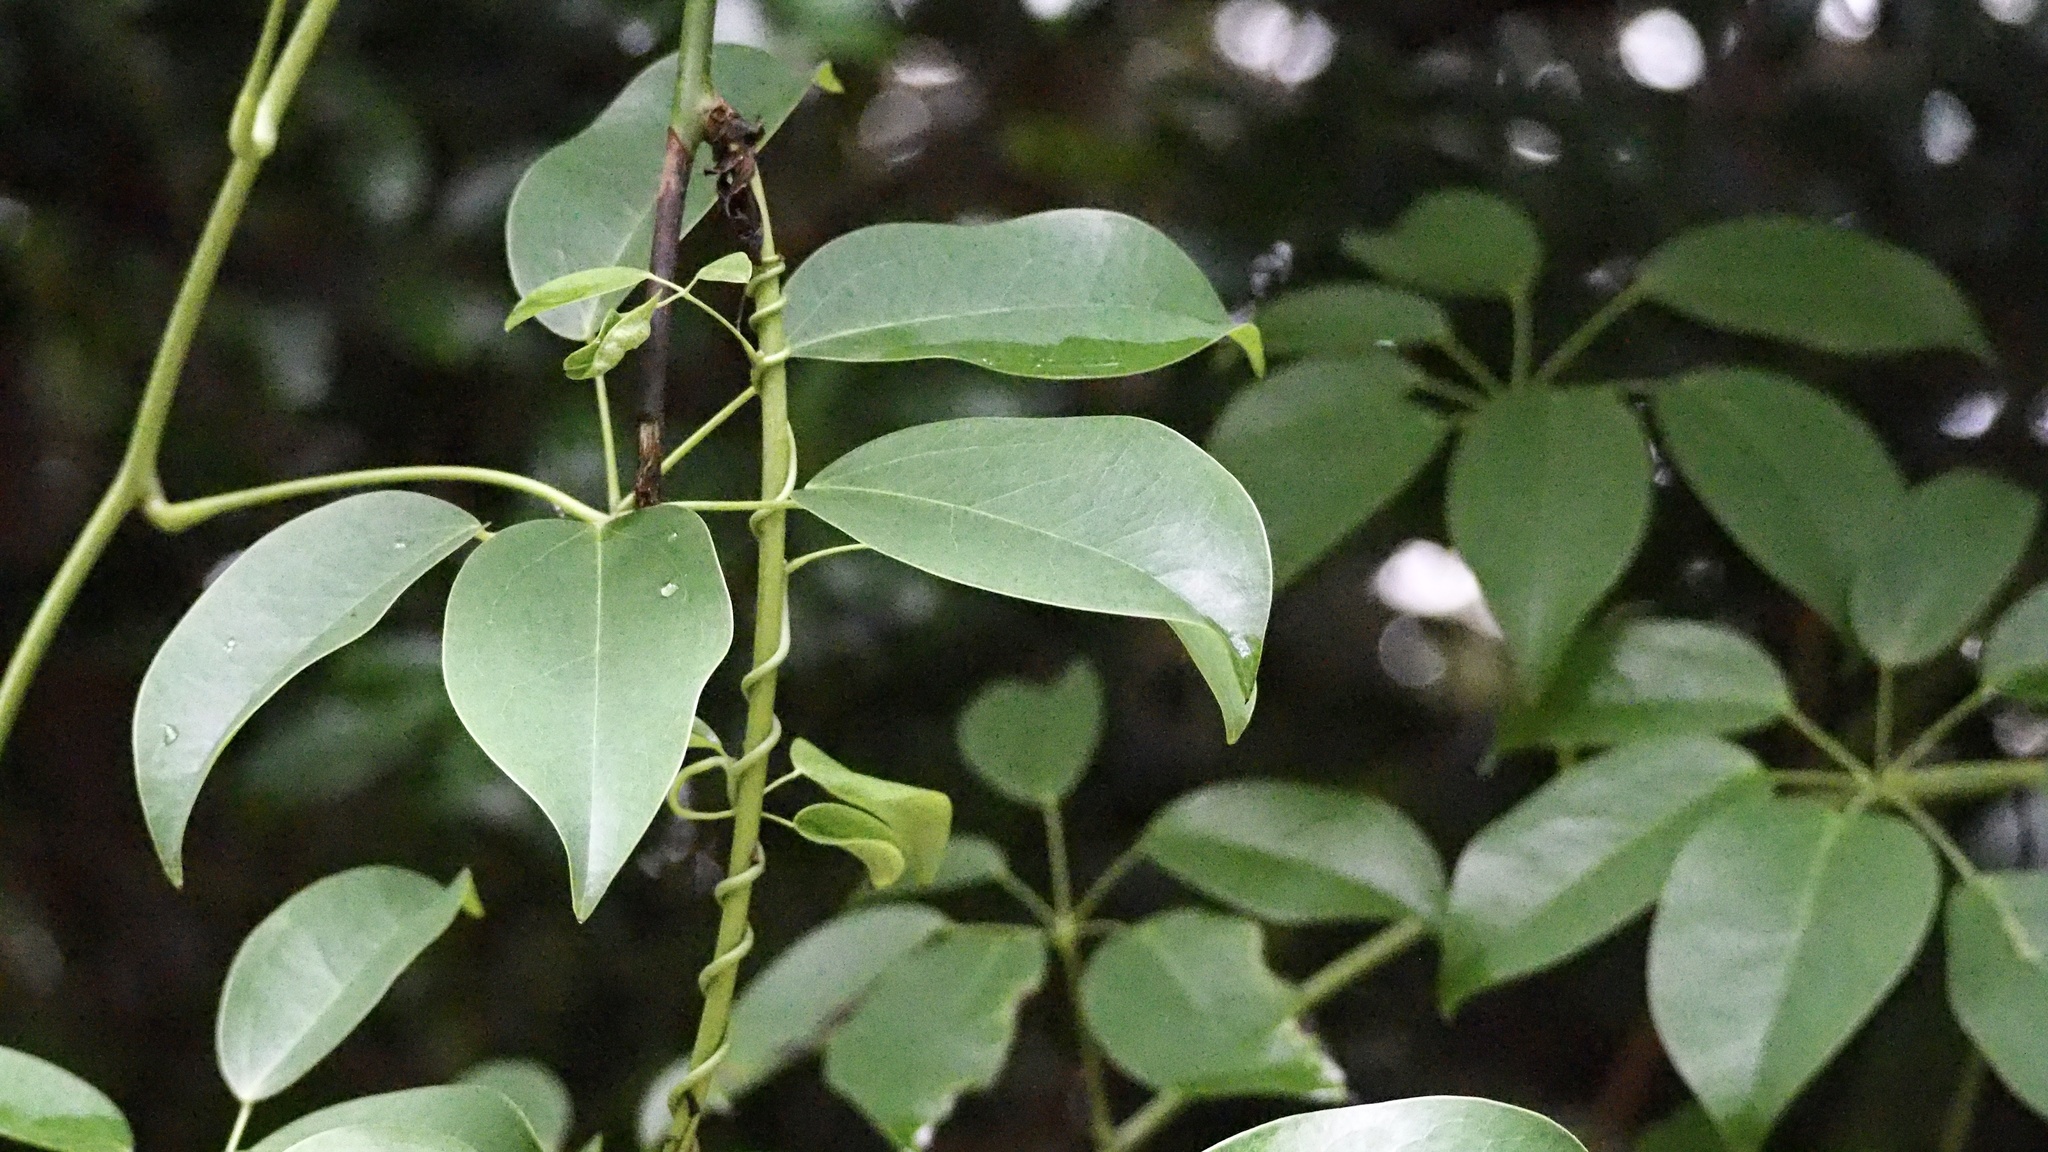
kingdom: Plantae
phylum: Tracheophyta
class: Magnoliopsida
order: Ranunculales
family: Lardizabalaceae
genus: Stauntonia
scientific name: Stauntonia hexaphylla
